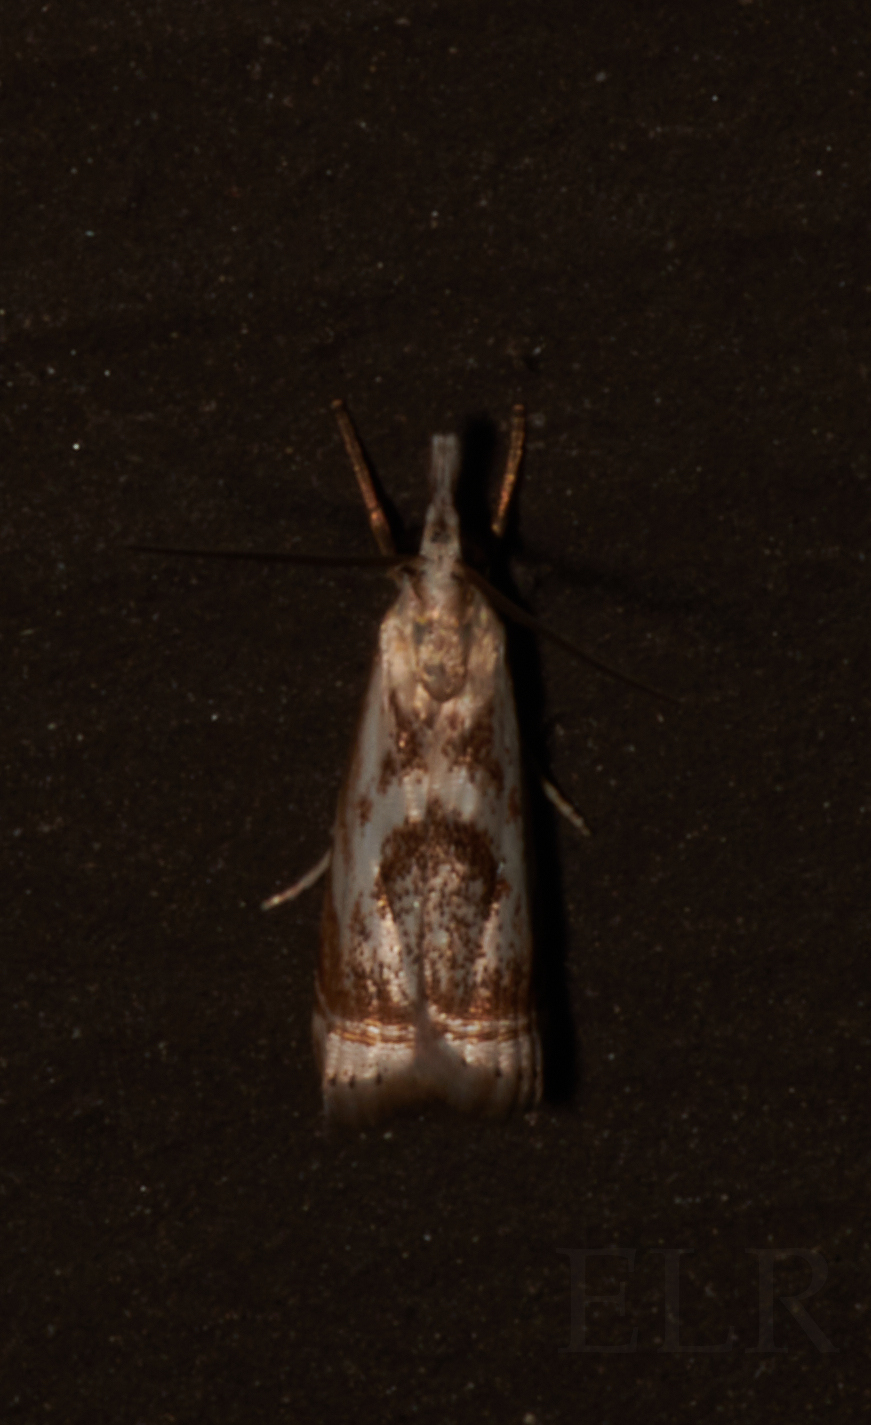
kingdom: Animalia
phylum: Arthropoda
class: Insecta
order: Lepidoptera
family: Crambidae
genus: Microcrambus
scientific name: Microcrambus elegans
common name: Elegant grass-veneer
